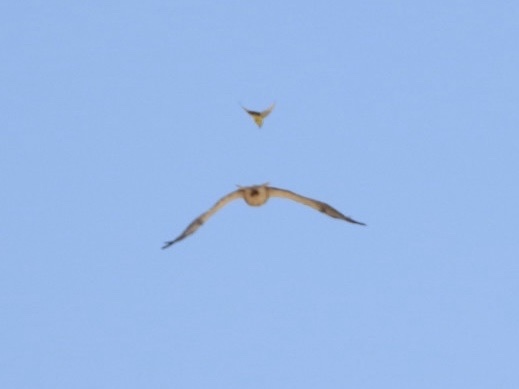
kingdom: Animalia
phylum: Chordata
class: Aves
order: Accipitriformes
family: Accipitridae
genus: Buteo
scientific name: Buteo swainsoni
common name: Swainson's hawk
